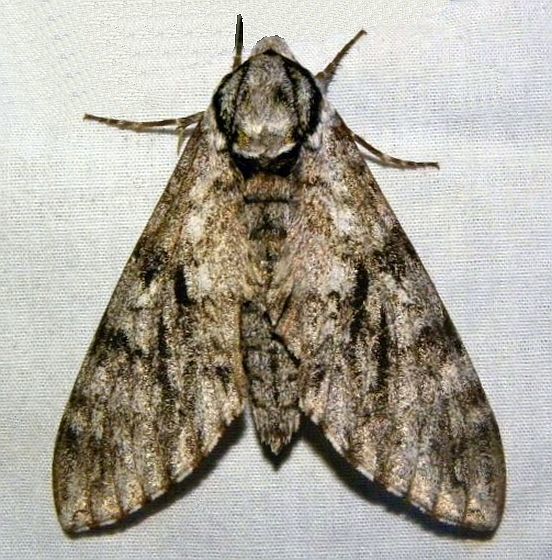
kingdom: Animalia
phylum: Arthropoda
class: Insecta
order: Lepidoptera
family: Sphingidae
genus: Ceratomia
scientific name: Ceratomia sonorensis
